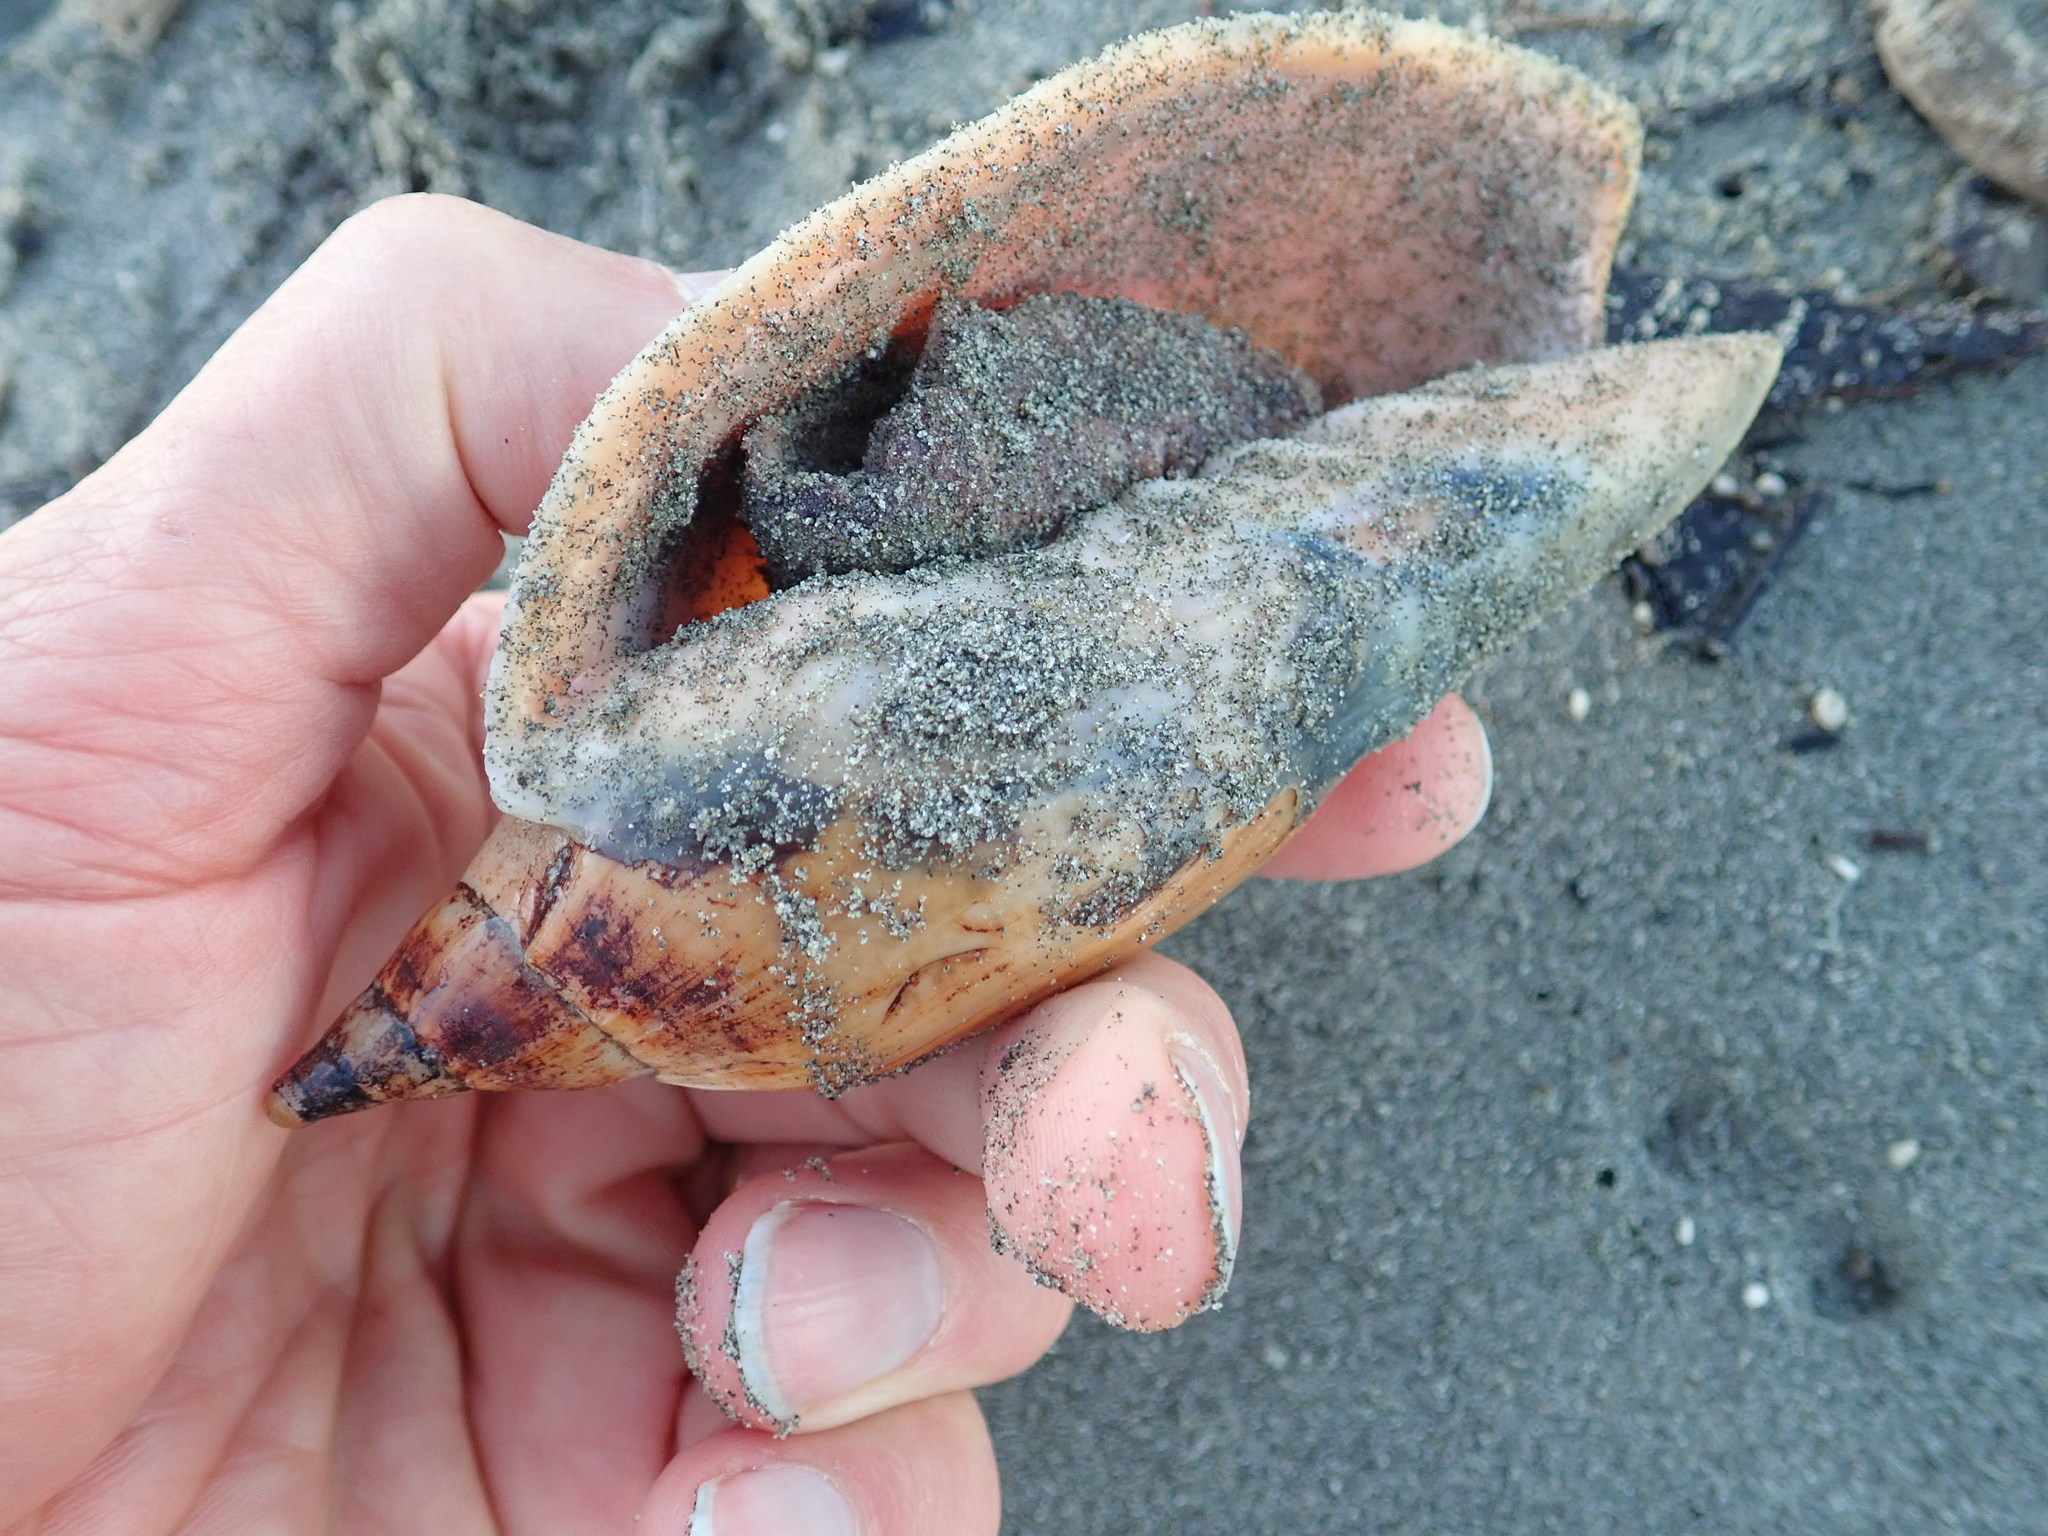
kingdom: Animalia
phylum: Mollusca
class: Gastropoda
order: Neogastropoda
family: Volutidae
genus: Alcithoe
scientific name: Alcithoe arabica
